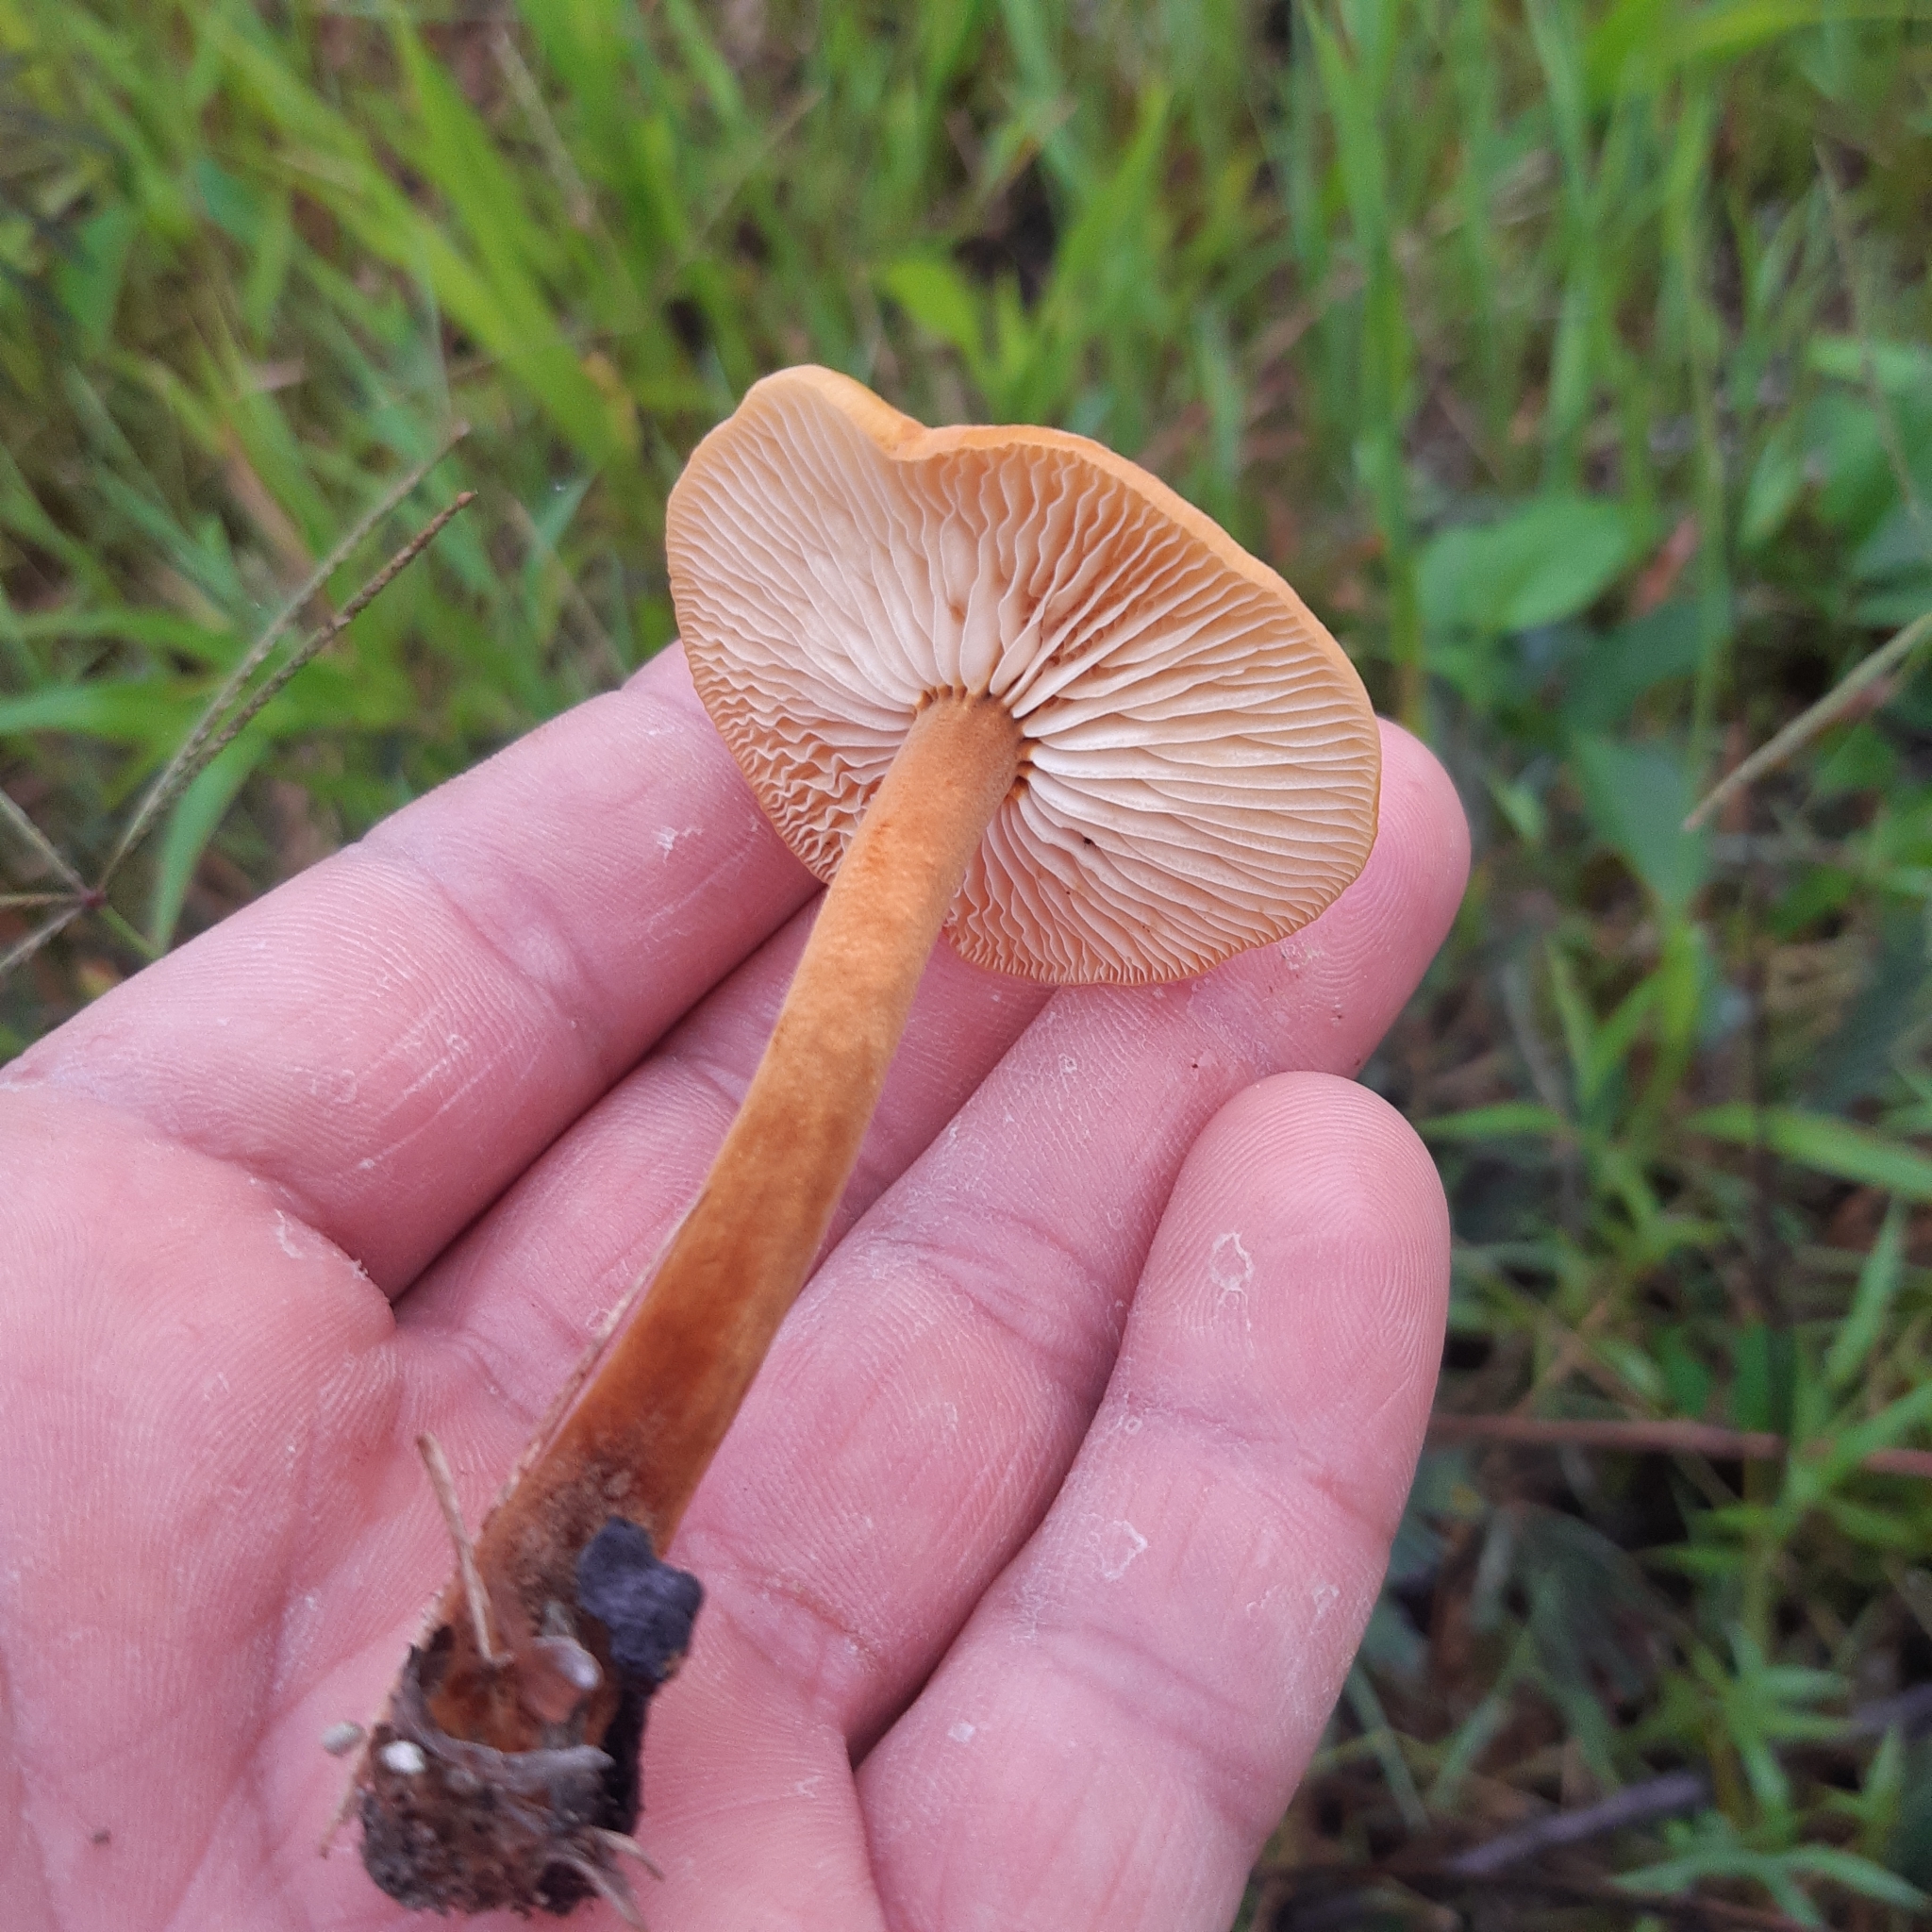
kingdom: Fungi
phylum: Basidiomycota
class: Agaricomycetes
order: Agaricales
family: Mycenaceae
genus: Xeromphalina
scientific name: Xeromphalina tenuipes
